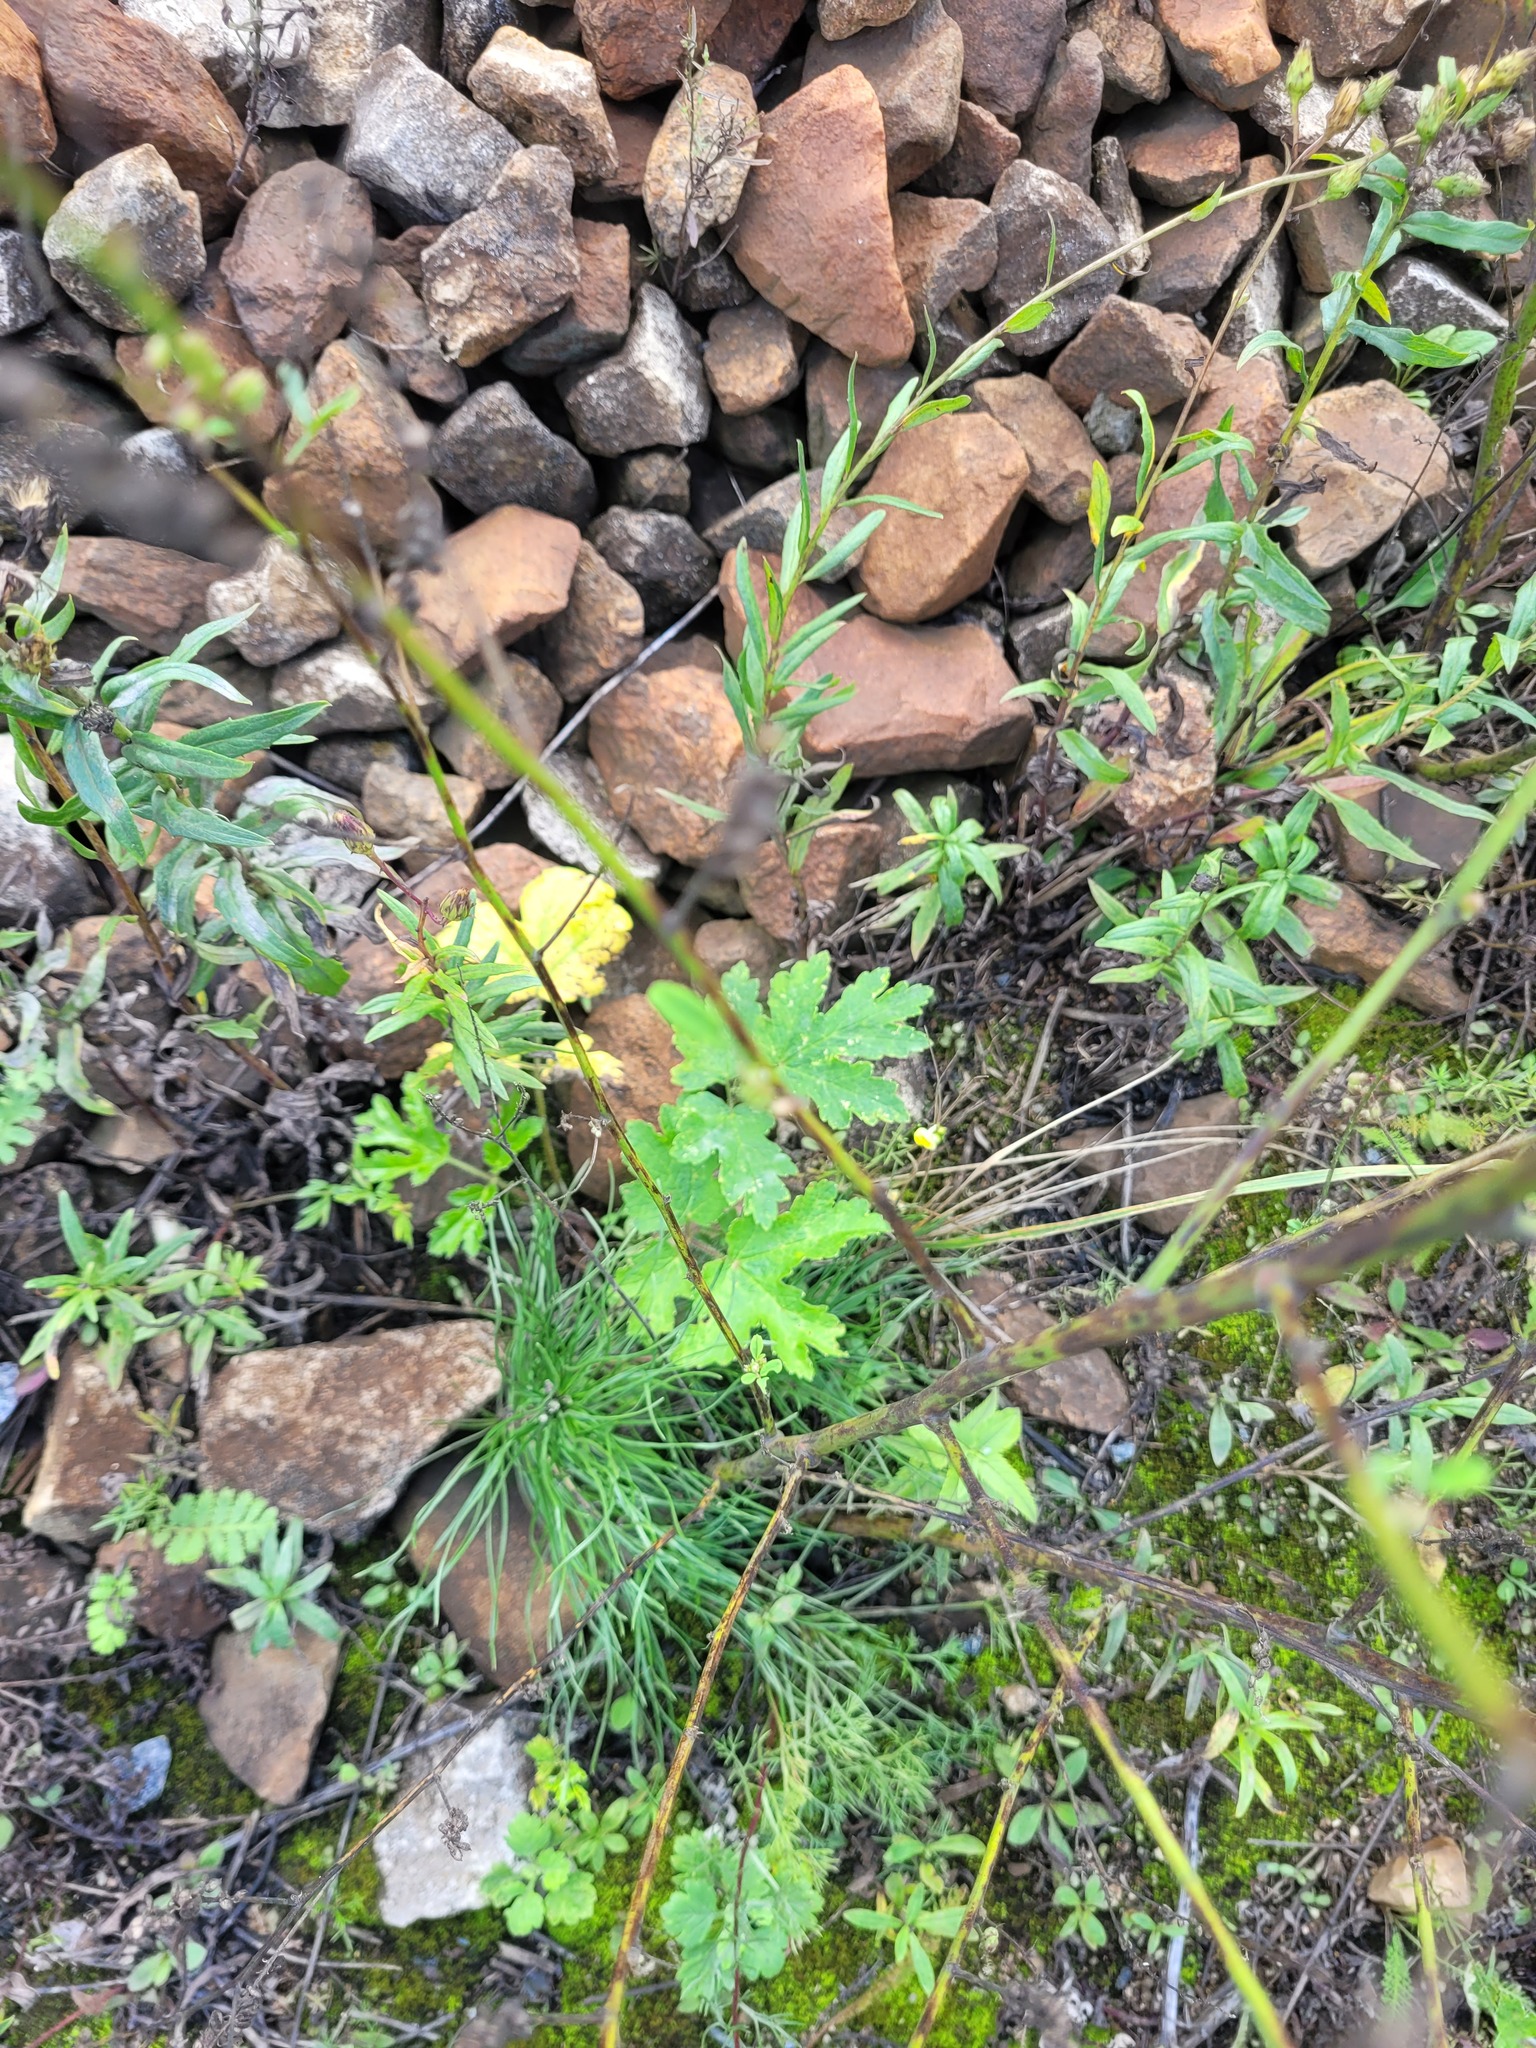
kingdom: Plantae
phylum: Tracheophyta
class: Magnoliopsida
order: Apiales
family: Apiaceae
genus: Heracleum
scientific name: Heracleum sphondylium
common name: Hogweed
